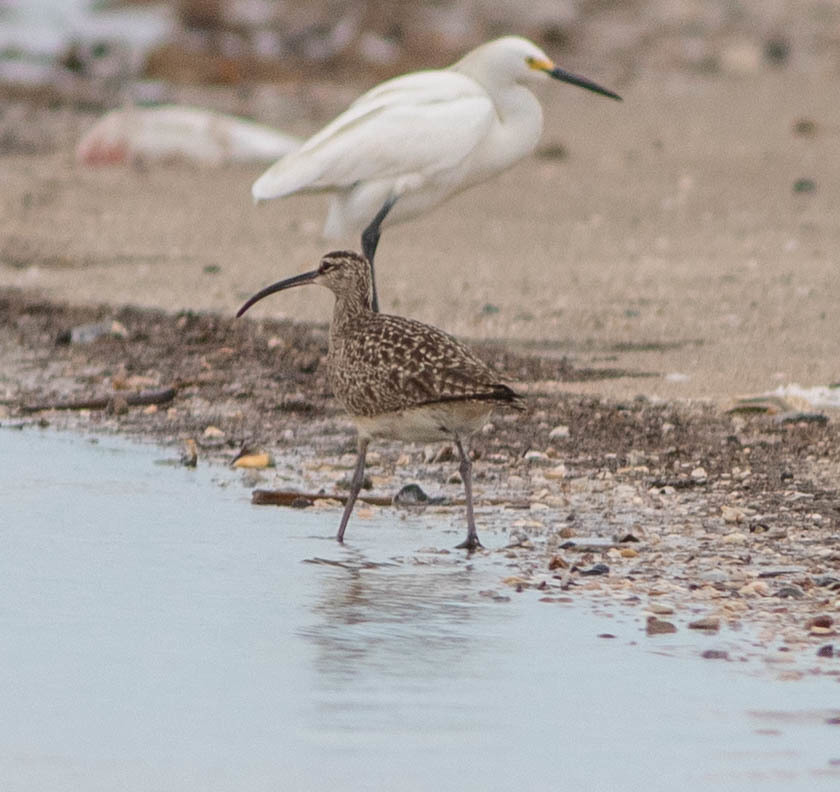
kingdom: Animalia
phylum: Chordata
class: Aves
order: Charadriiformes
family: Scolopacidae
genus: Numenius
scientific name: Numenius phaeopus
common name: Whimbrel
